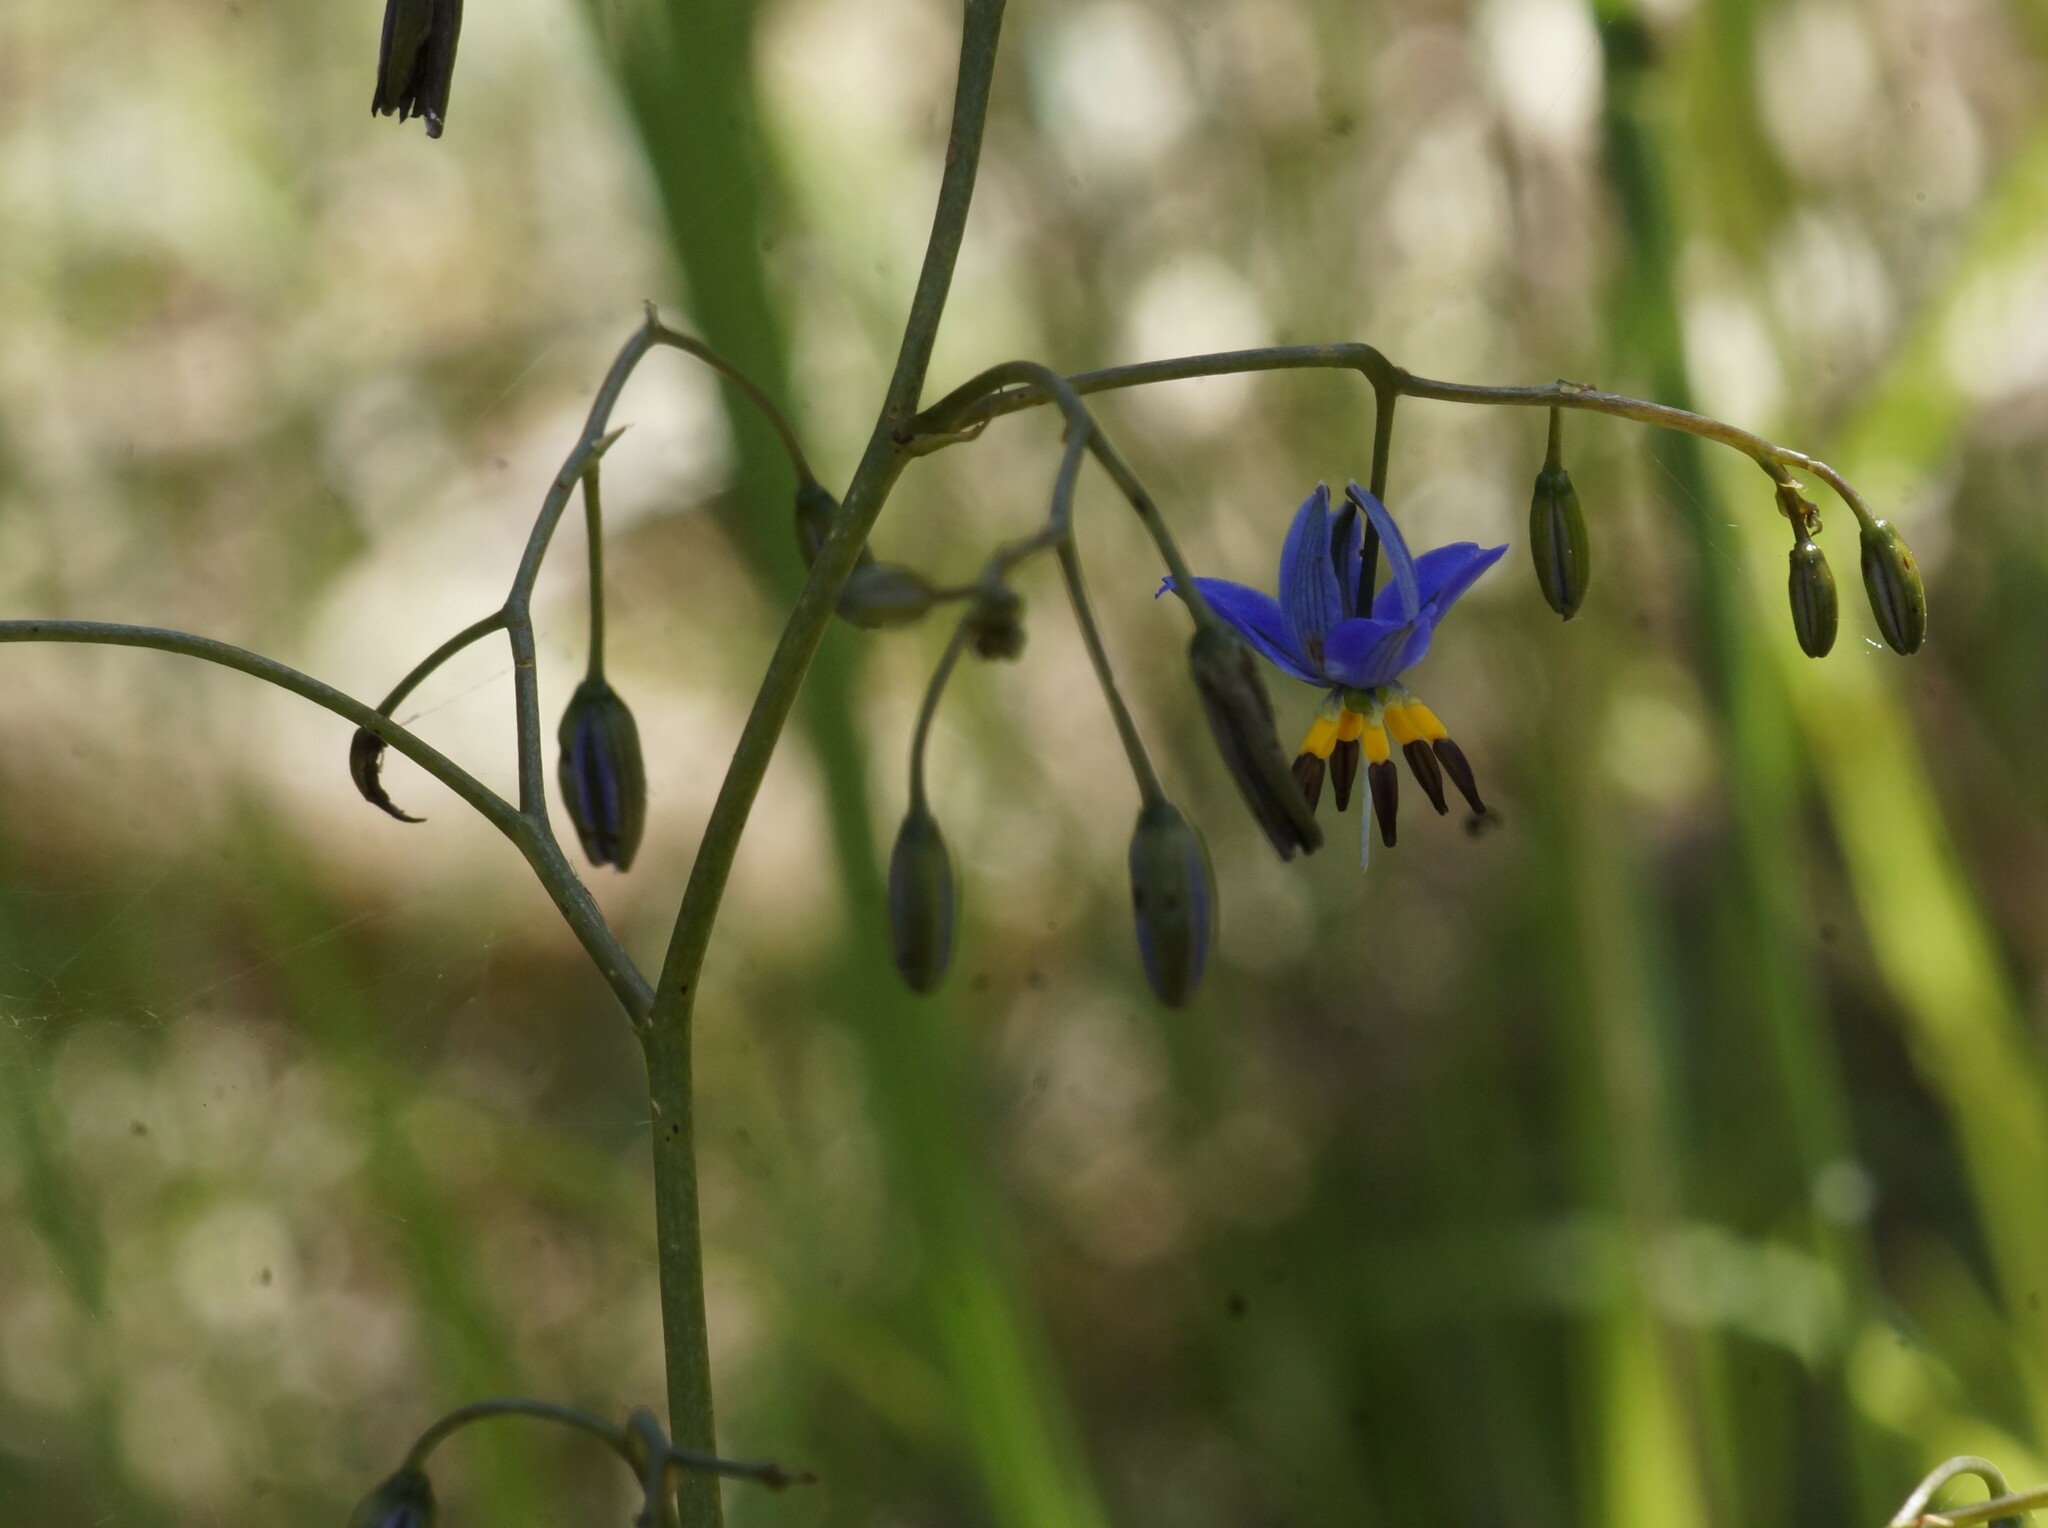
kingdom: Plantae
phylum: Tracheophyta
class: Liliopsida
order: Asparagales
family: Asphodelaceae
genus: Dianella
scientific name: Dianella revoluta
